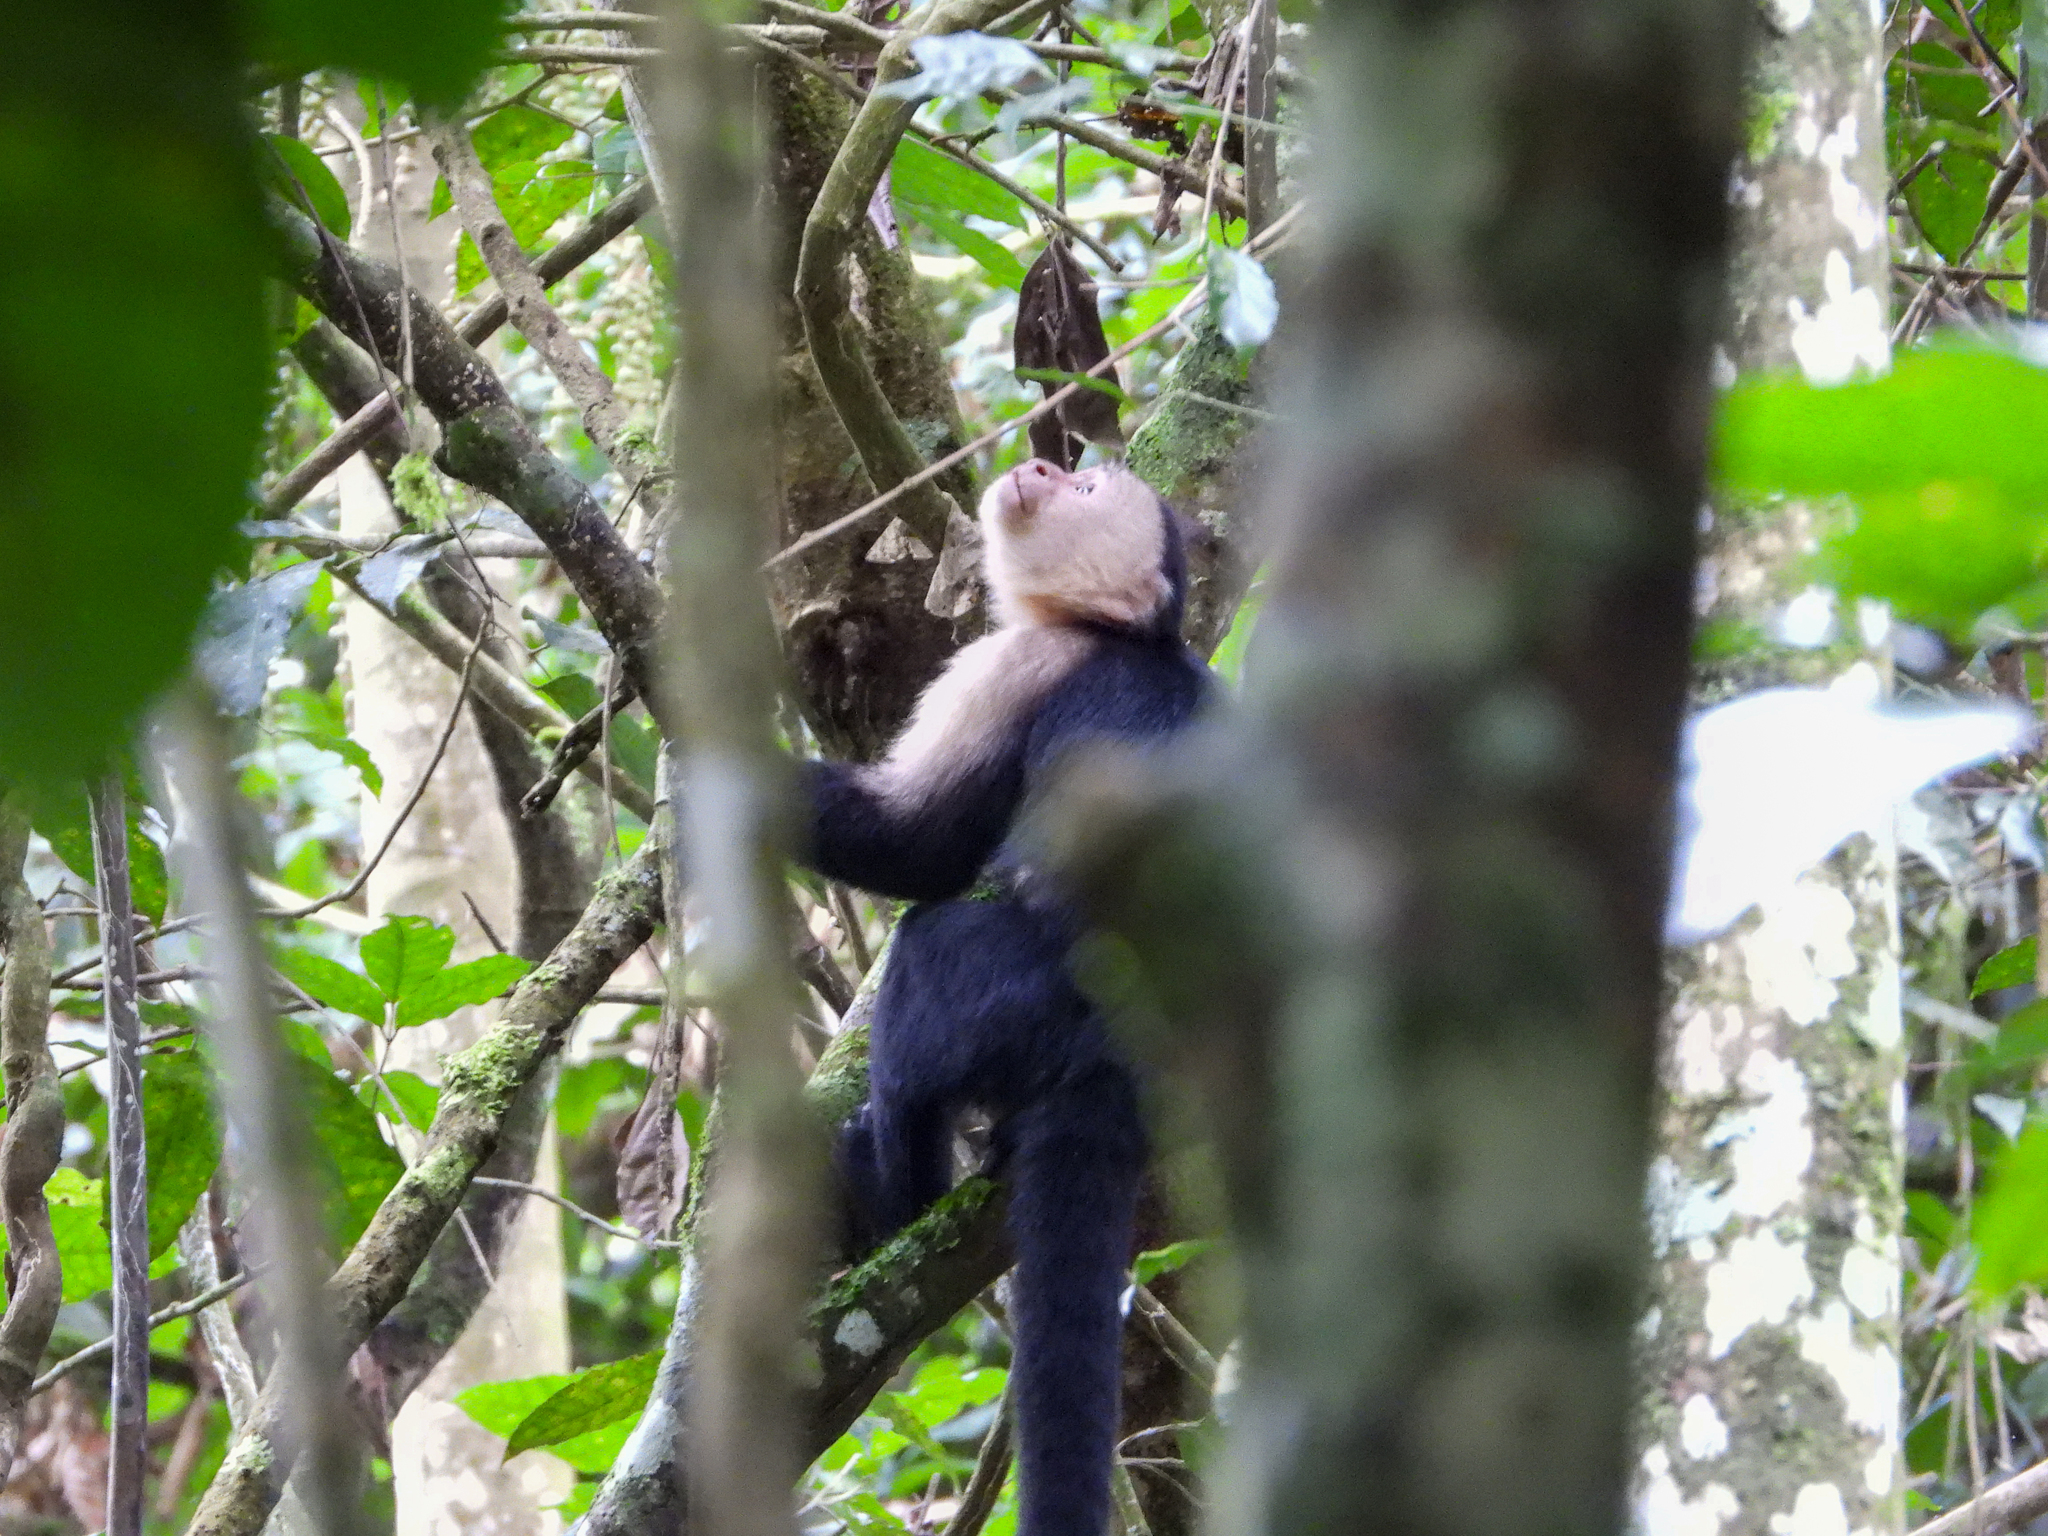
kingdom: Animalia
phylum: Chordata
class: Mammalia
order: Primates
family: Cebidae
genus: Cebus
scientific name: Cebus imitator
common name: Panamanian white-faced capuchin
